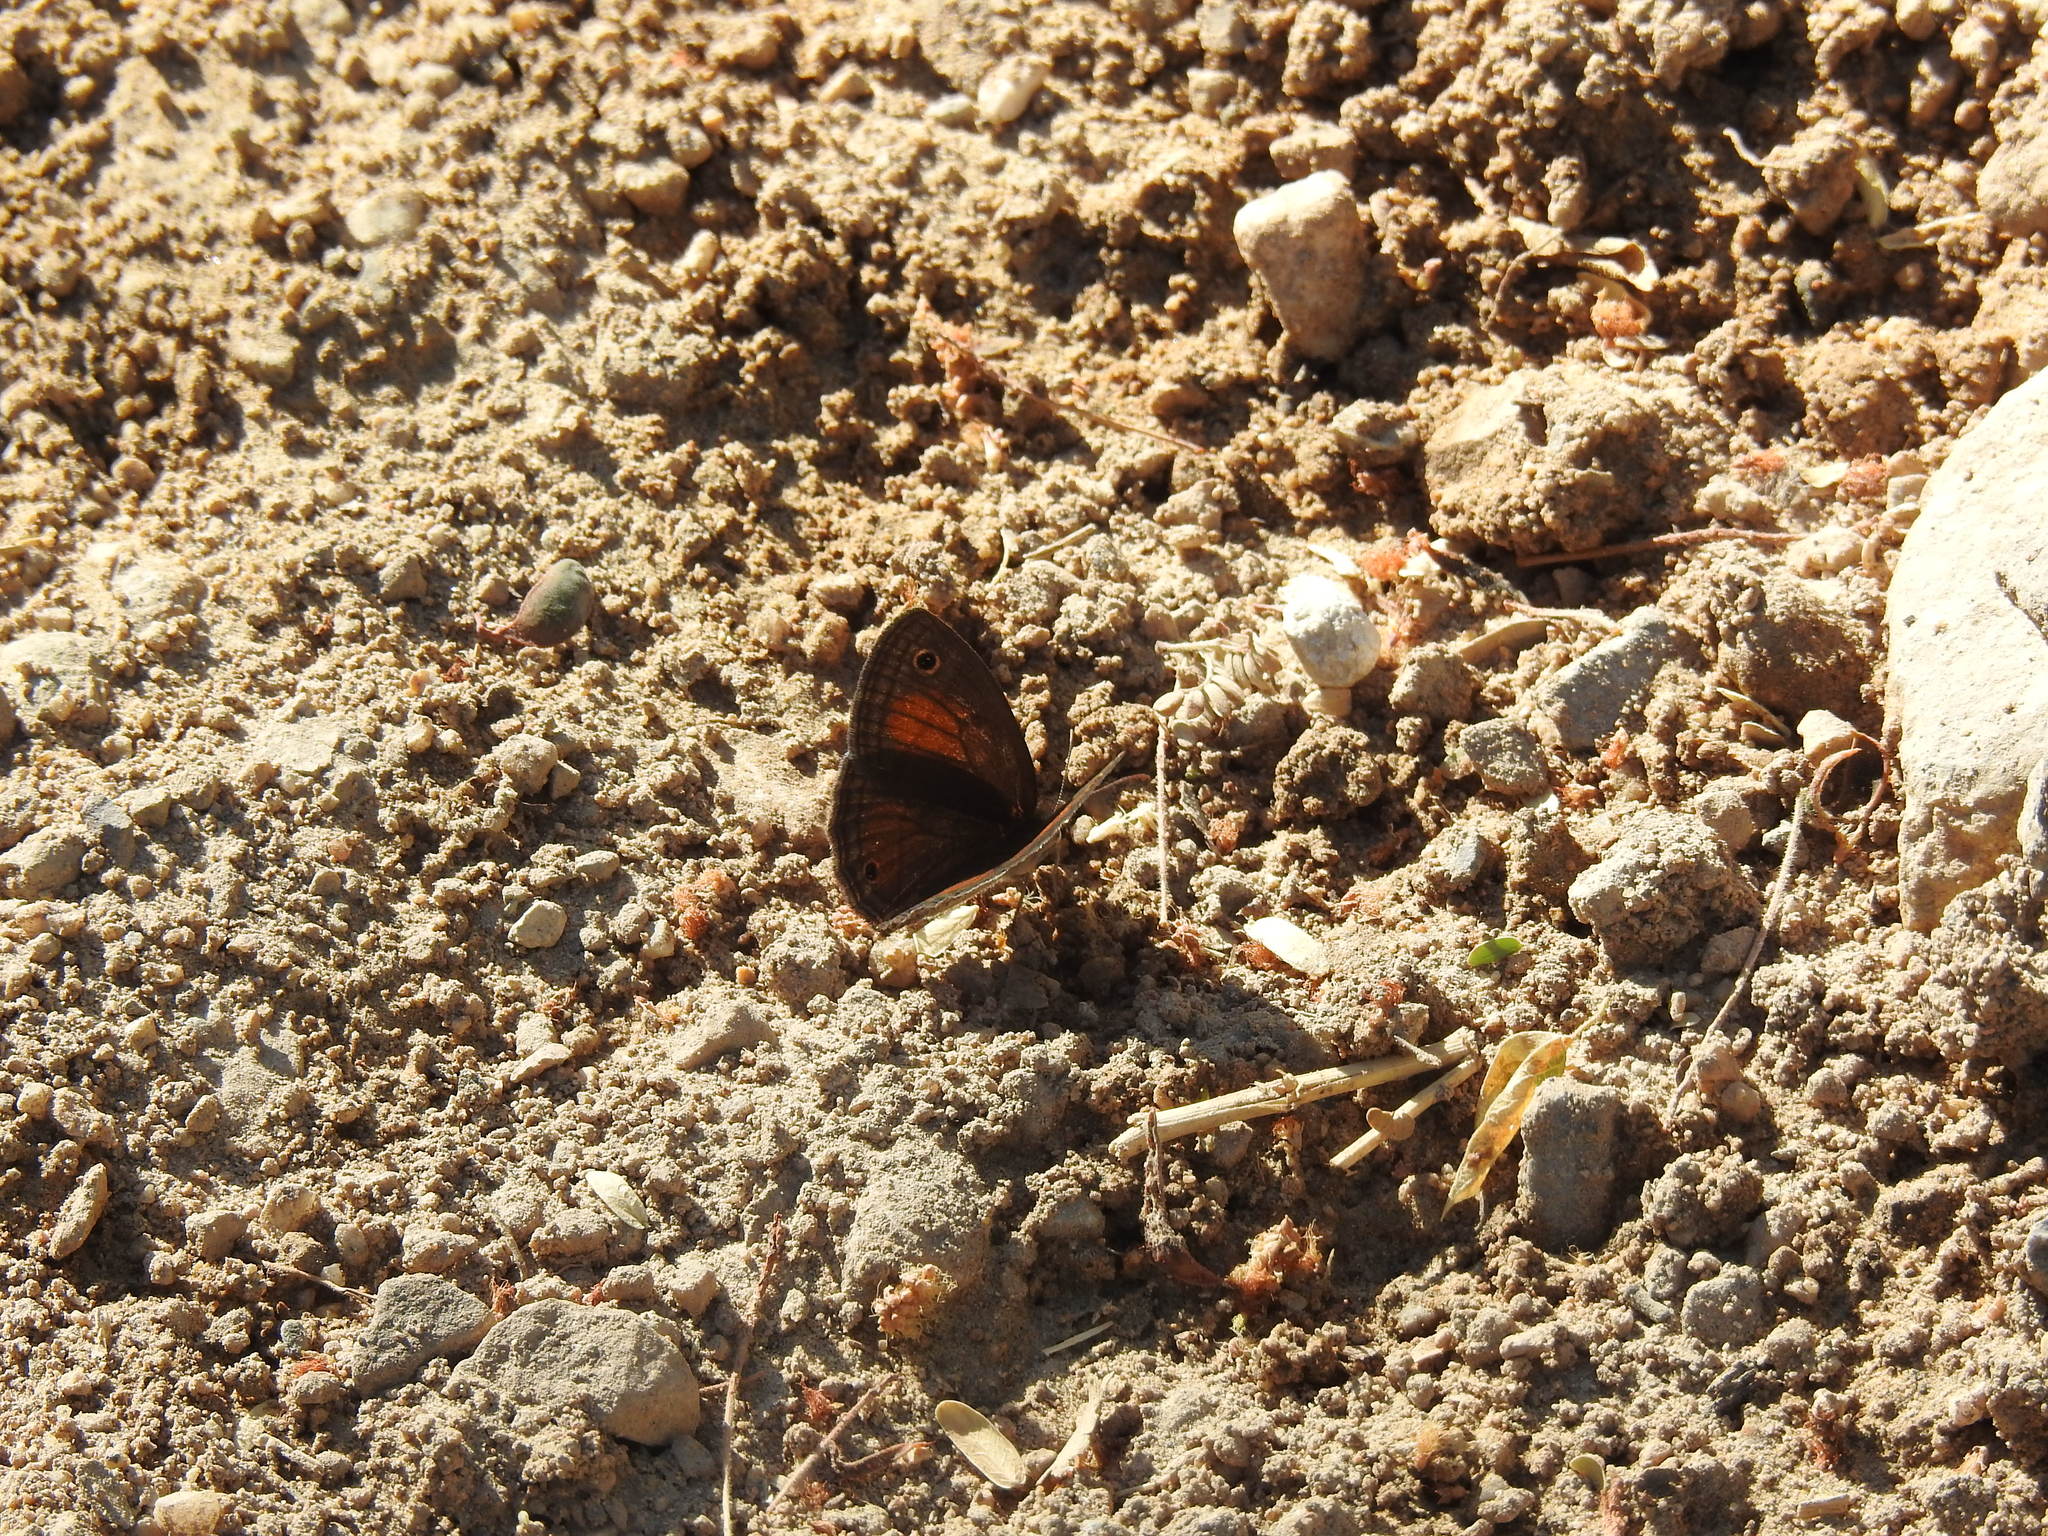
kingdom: Animalia
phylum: Arthropoda
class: Insecta
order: Lepidoptera
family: Nymphalidae
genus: Euptychia
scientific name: Euptychia
